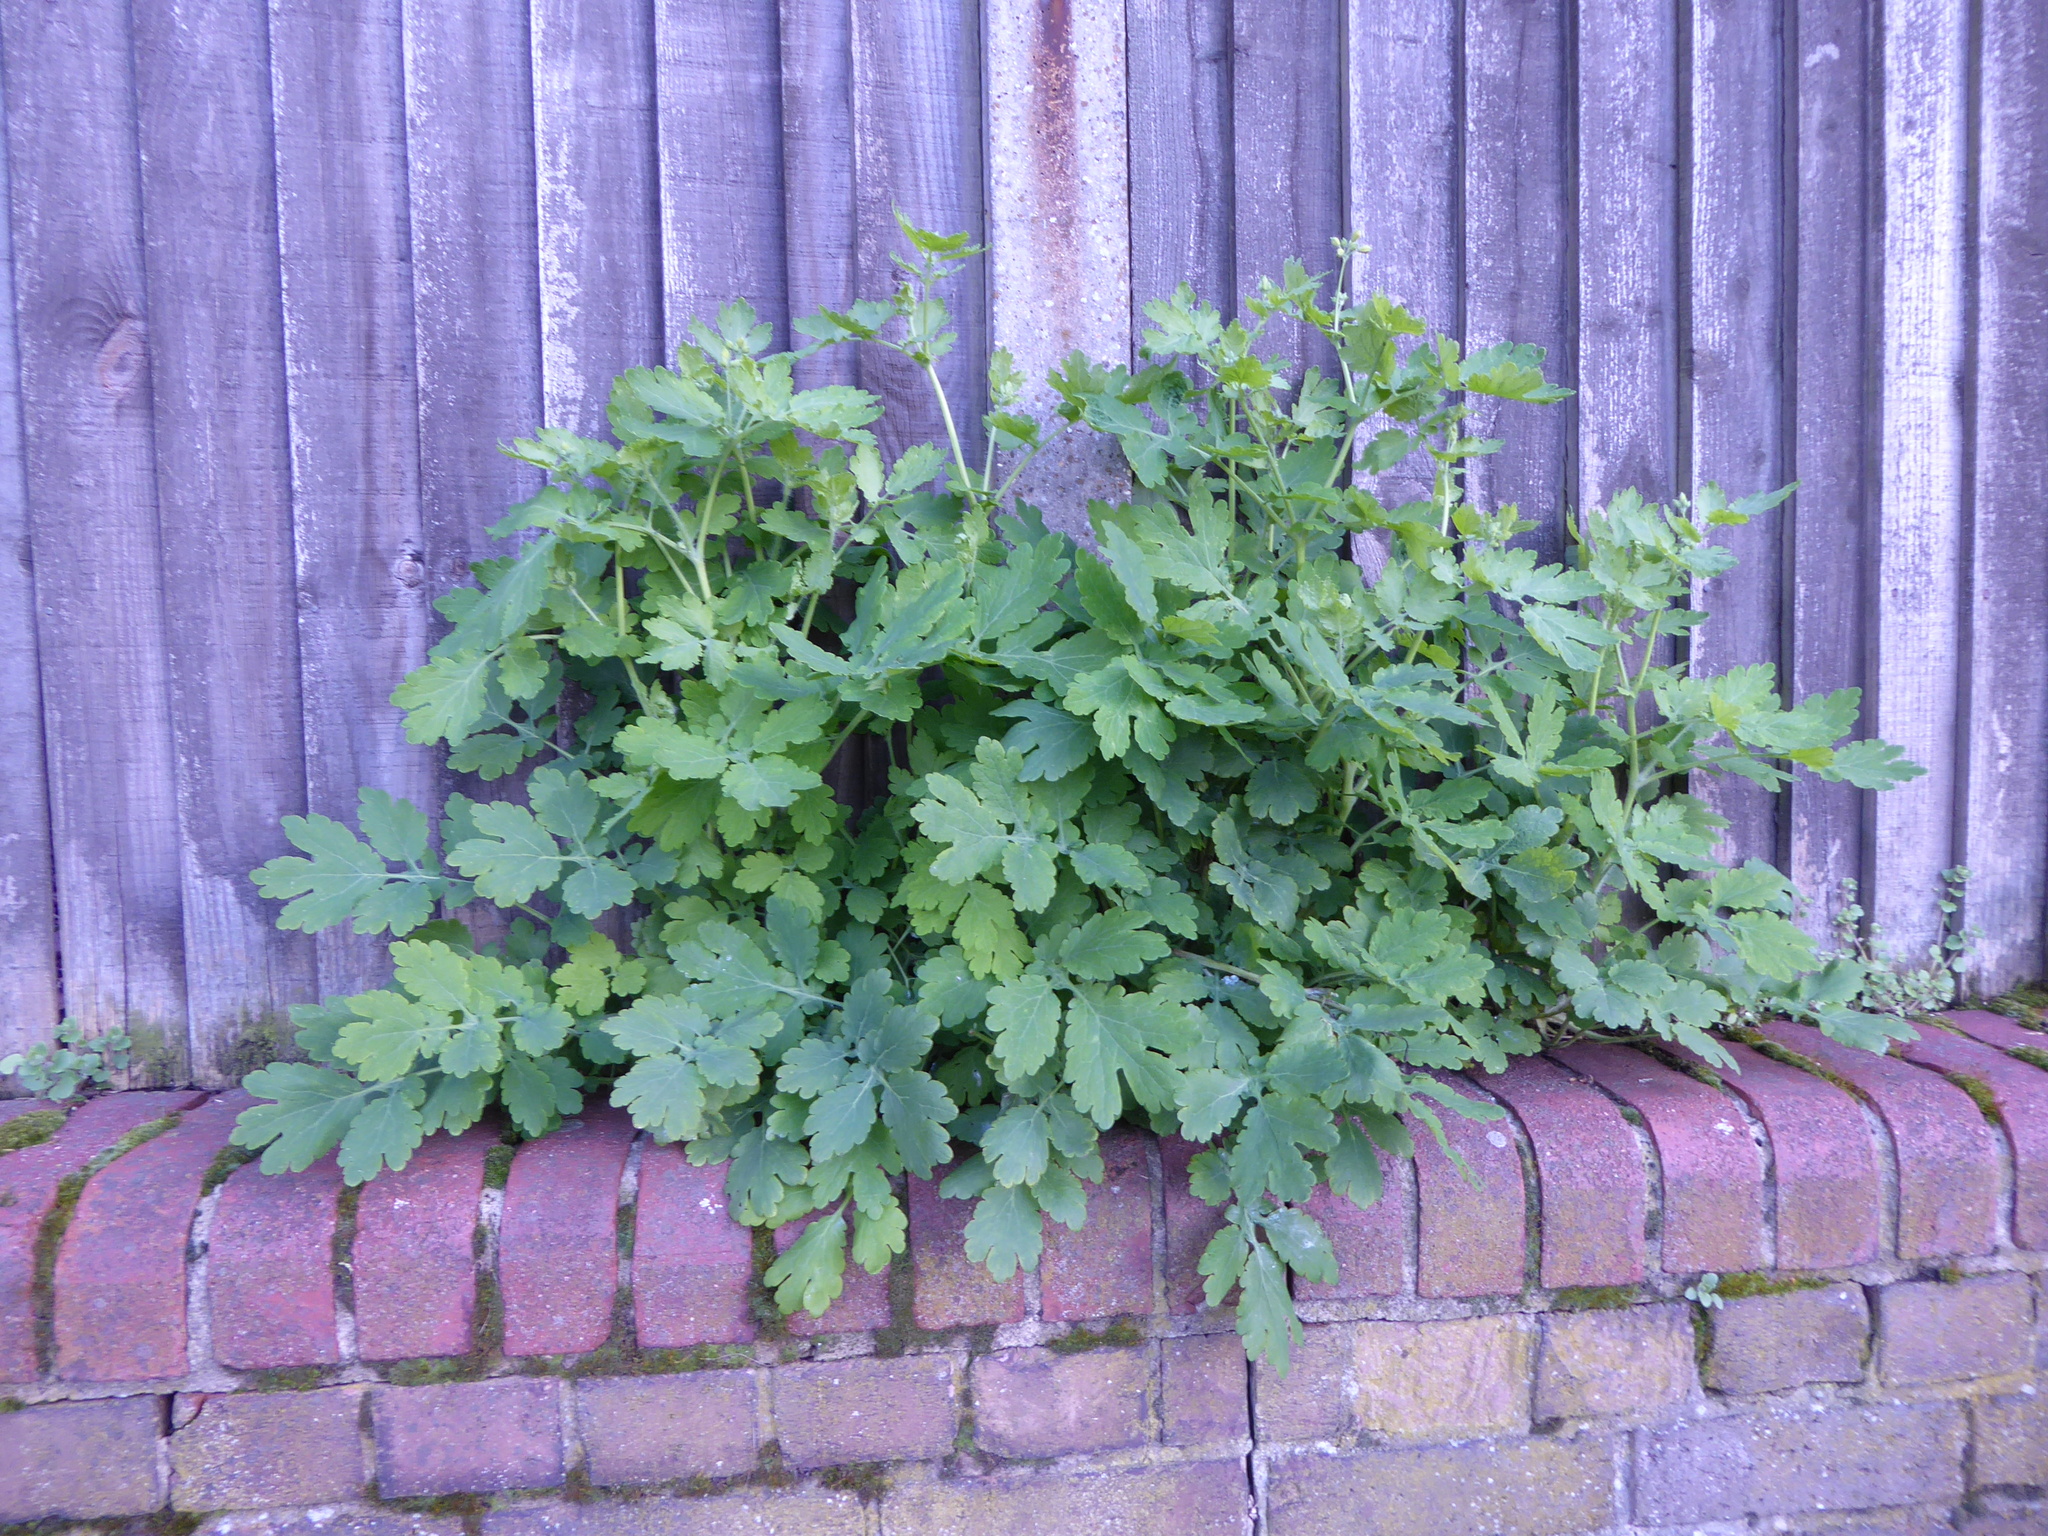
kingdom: Plantae
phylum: Tracheophyta
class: Magnoliopsida
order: Ranunculales
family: Papaveraceae
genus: Chelidonium
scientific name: Chelidonium majus
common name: Greater celandine
